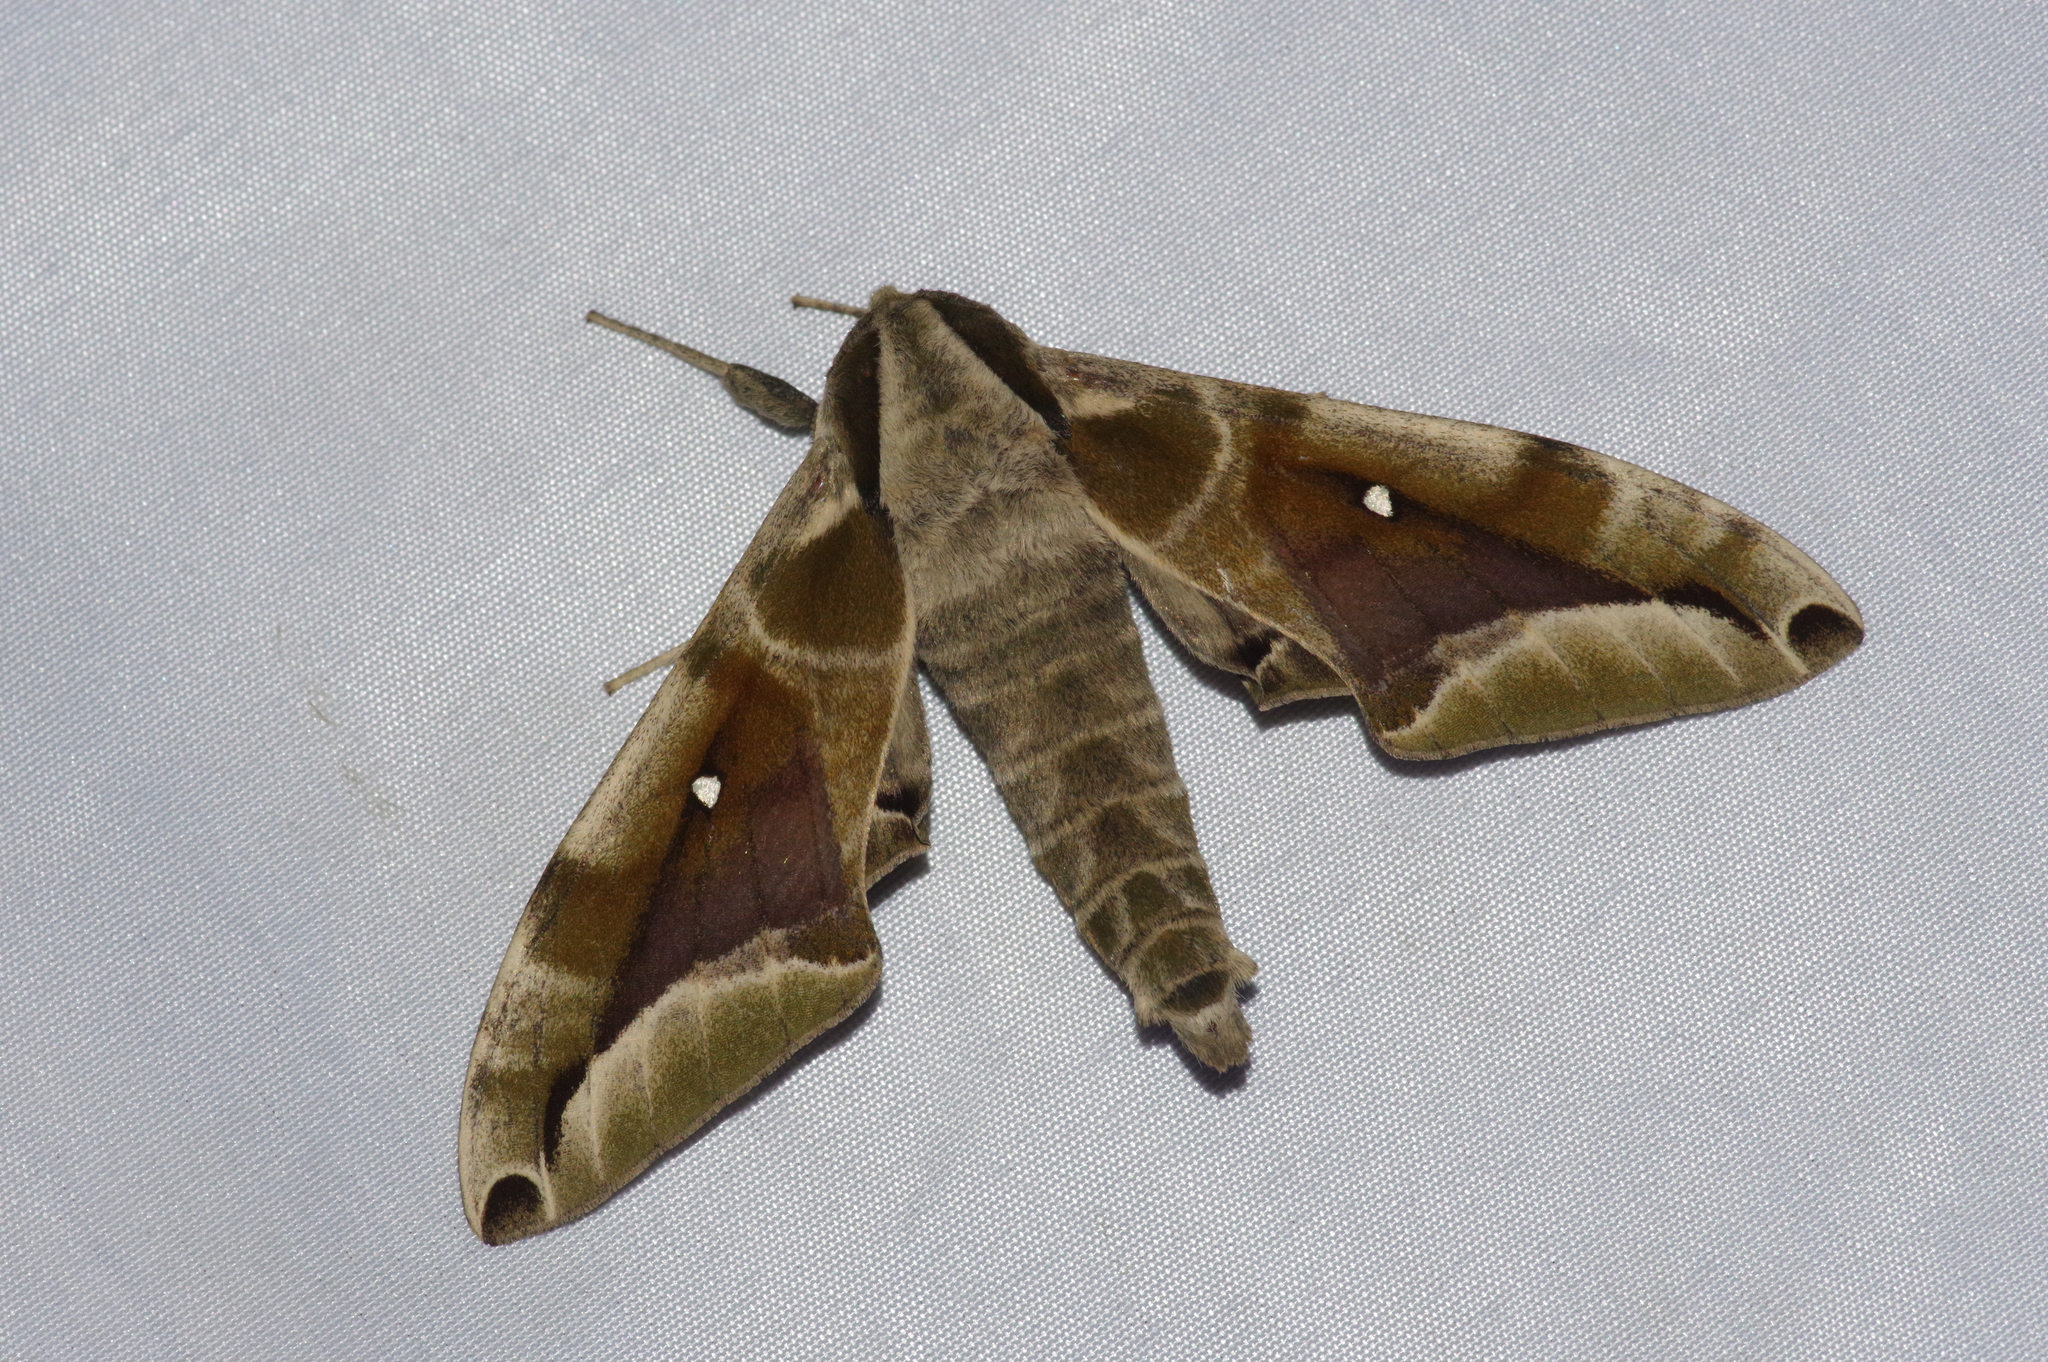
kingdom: Animalia
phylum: Arthropoda
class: Insecta
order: Lepidoptera
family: Sphingidae
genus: Parum
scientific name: Parum colligata
